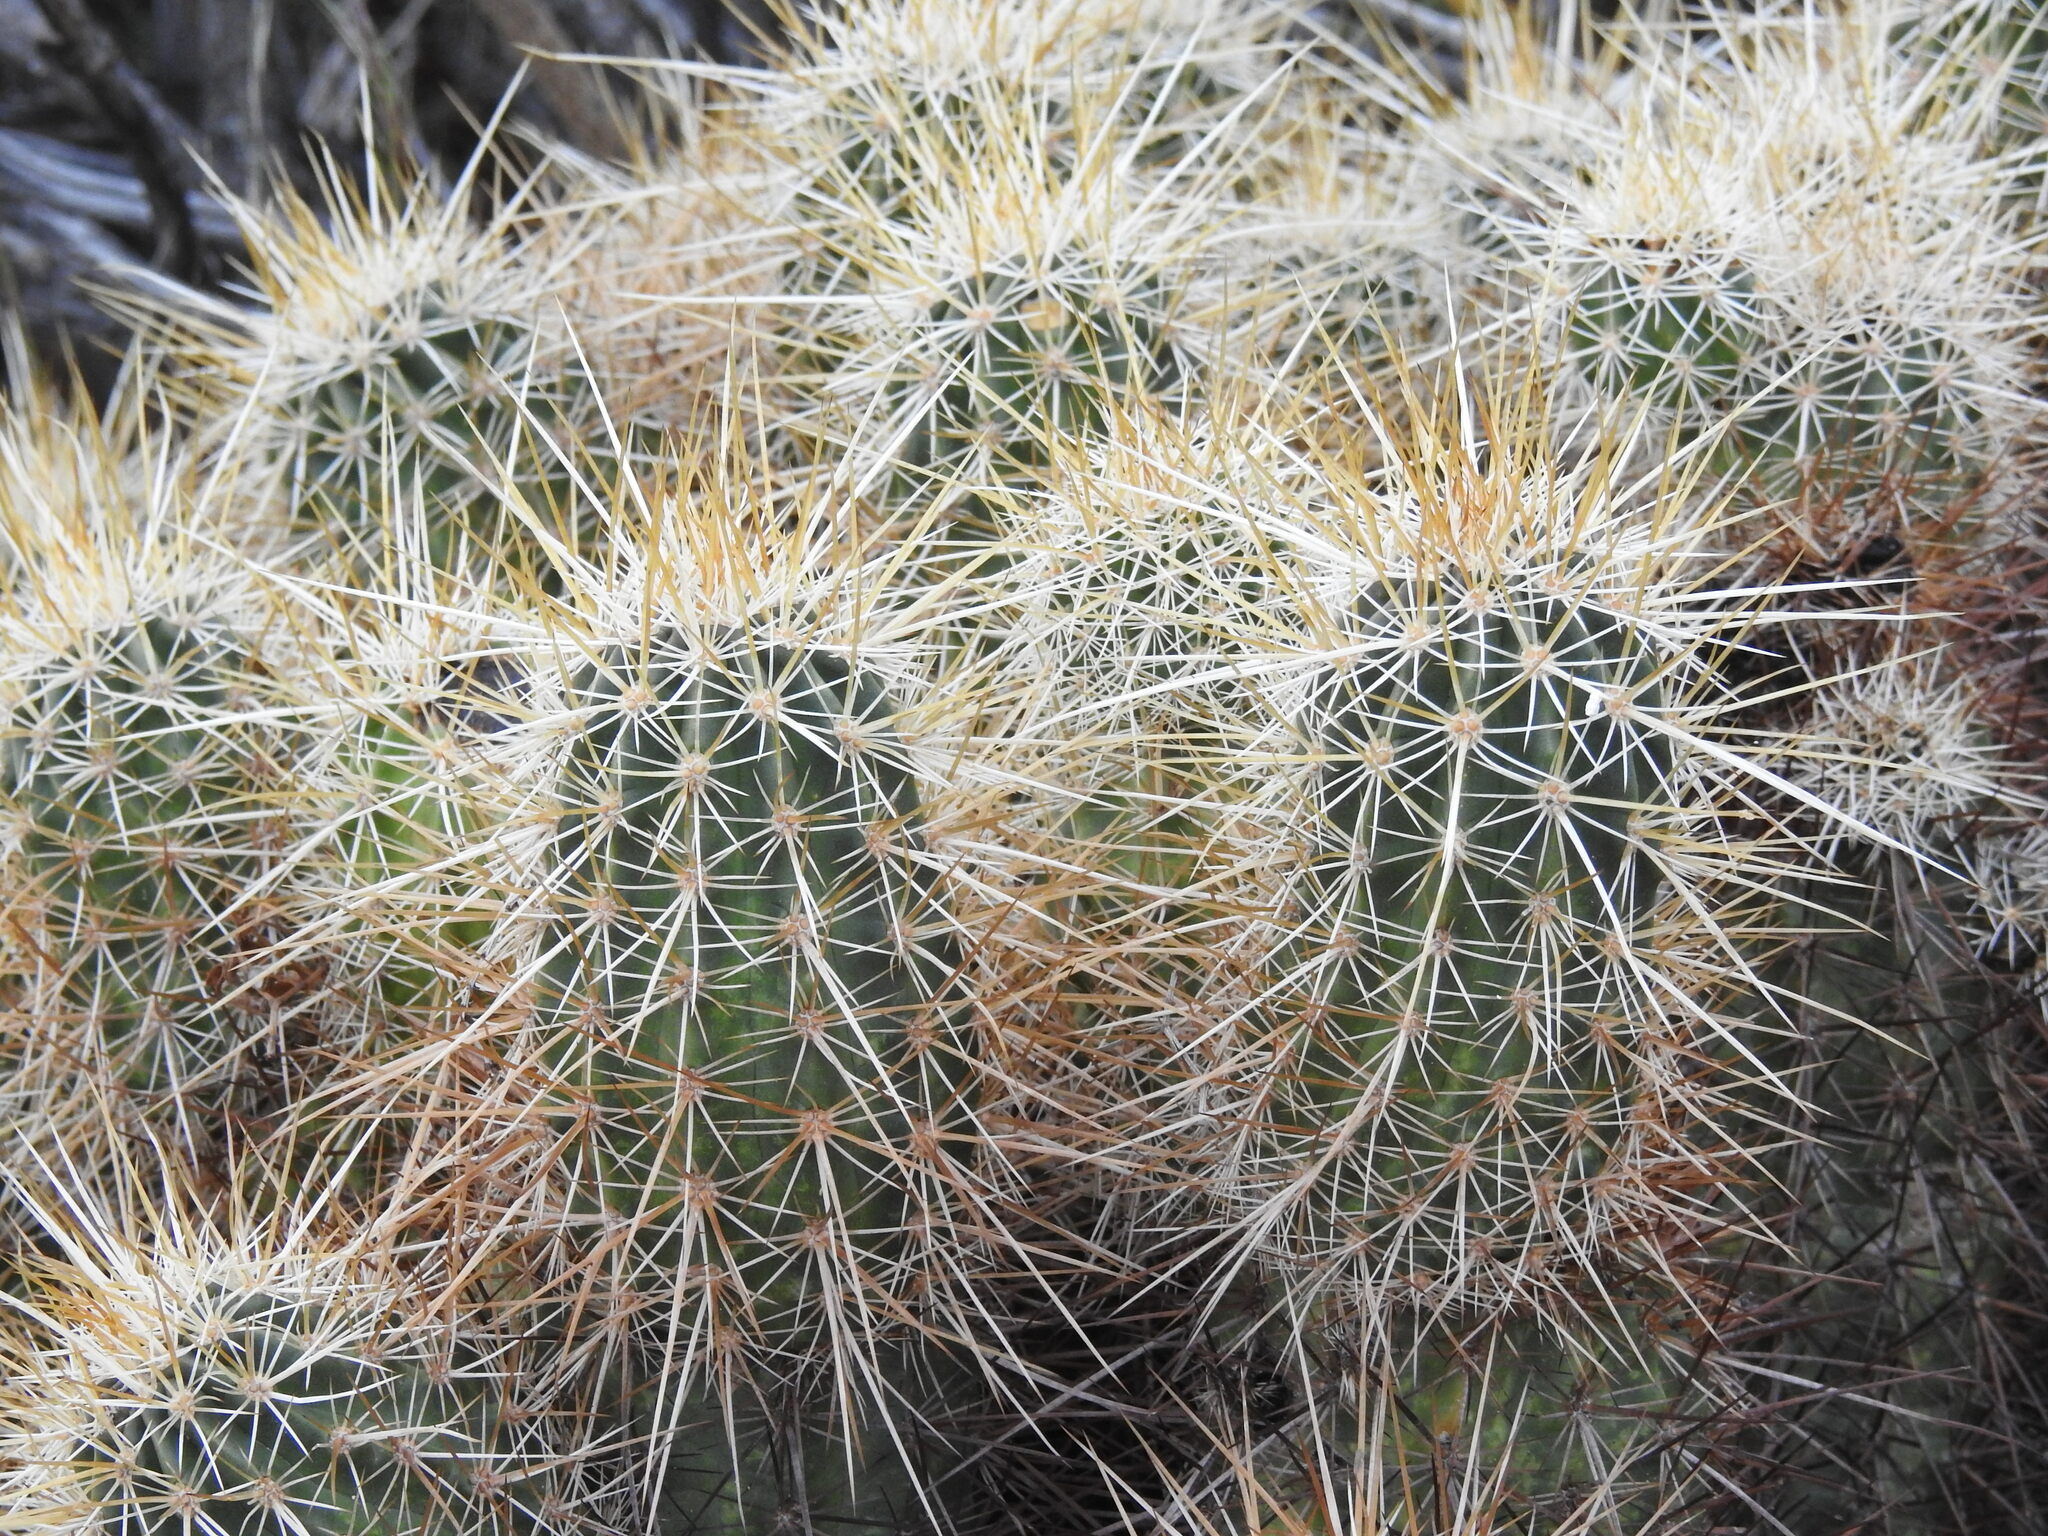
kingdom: Plantae
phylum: Tracheophyta
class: Magnoliopsida
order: Caryophyllales
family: Cactaceae
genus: Echinocereus
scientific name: Echinocereus engelmannii
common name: Engelmann's hedgehog cactus
